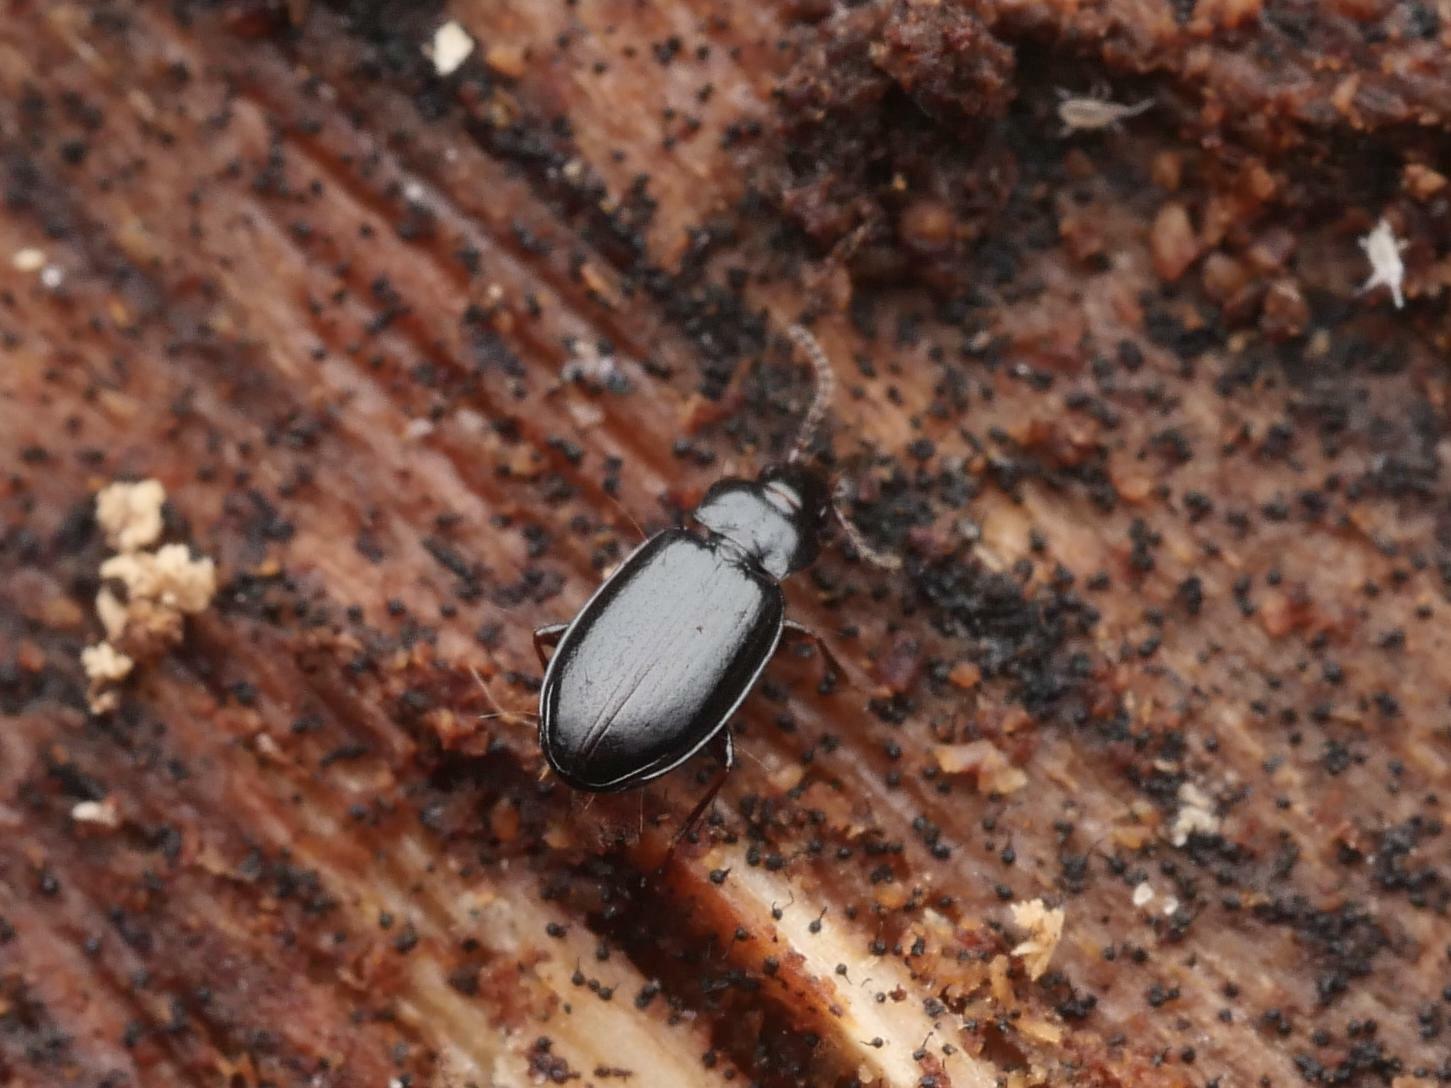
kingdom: Animalia
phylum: Arthropoda
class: Insecta
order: Coleoptera
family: Carabidae
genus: Tachyta
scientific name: Tachyta nana
